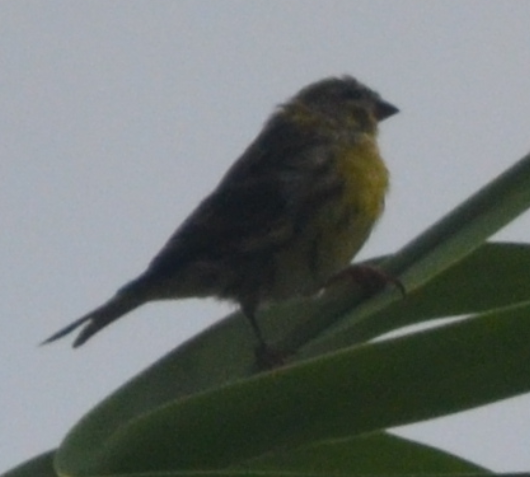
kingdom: Animalia
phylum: Chordata
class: Aves
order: Passeriformes
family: Fringillidae
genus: Serinus
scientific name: Serinus serinus
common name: European serin
